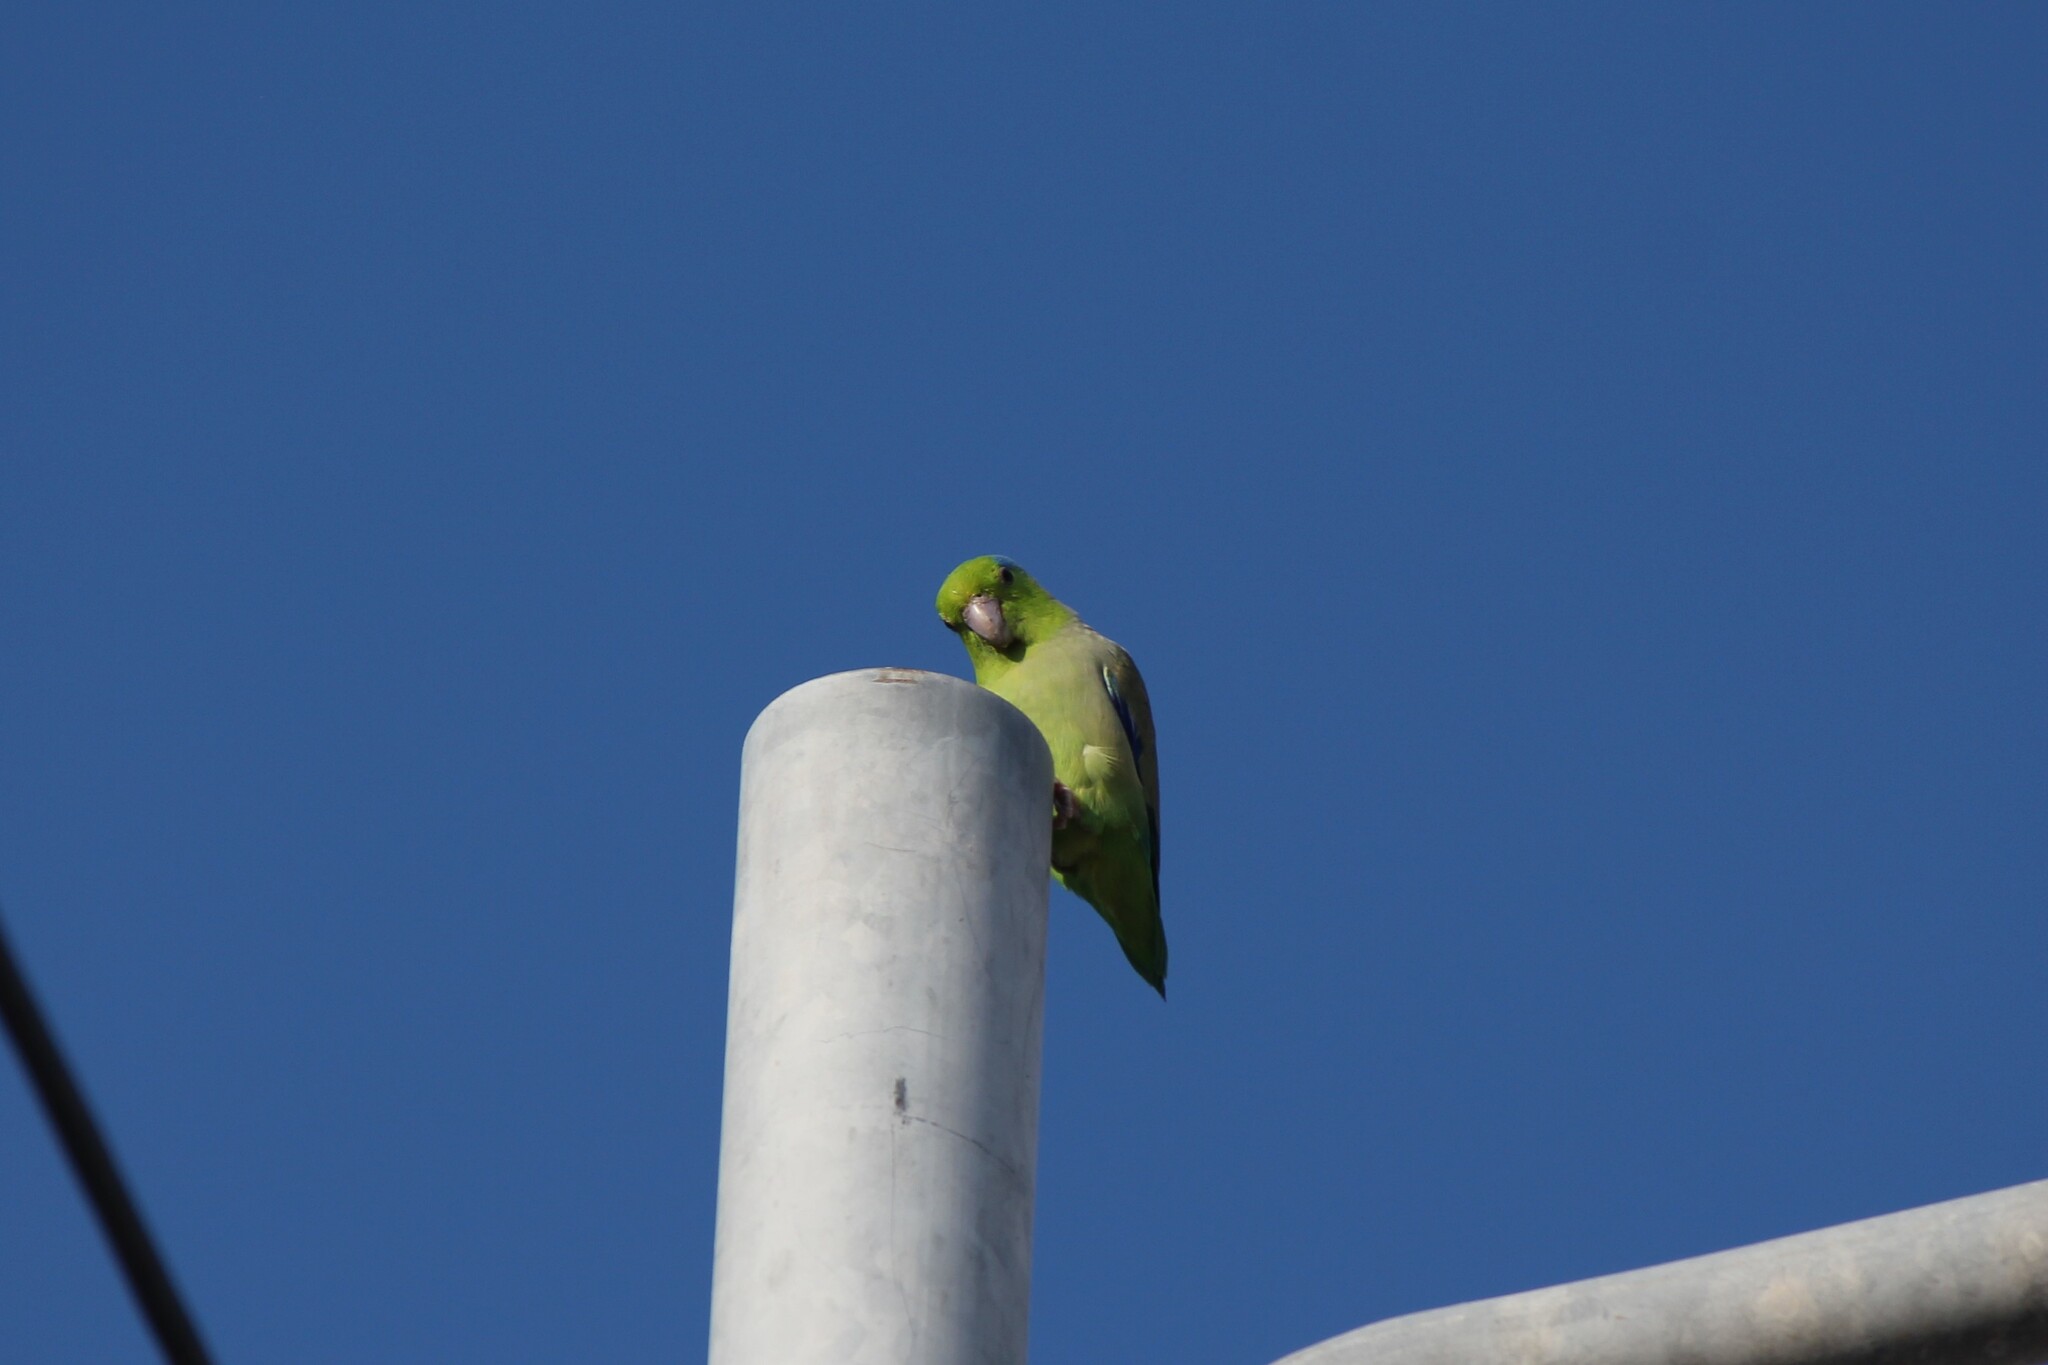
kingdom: Animalia
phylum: Chordata
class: Aves
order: Psittaciformes
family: Psittacidae
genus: Forpus
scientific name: Forpus coelestis
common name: Pacific parrotlet
